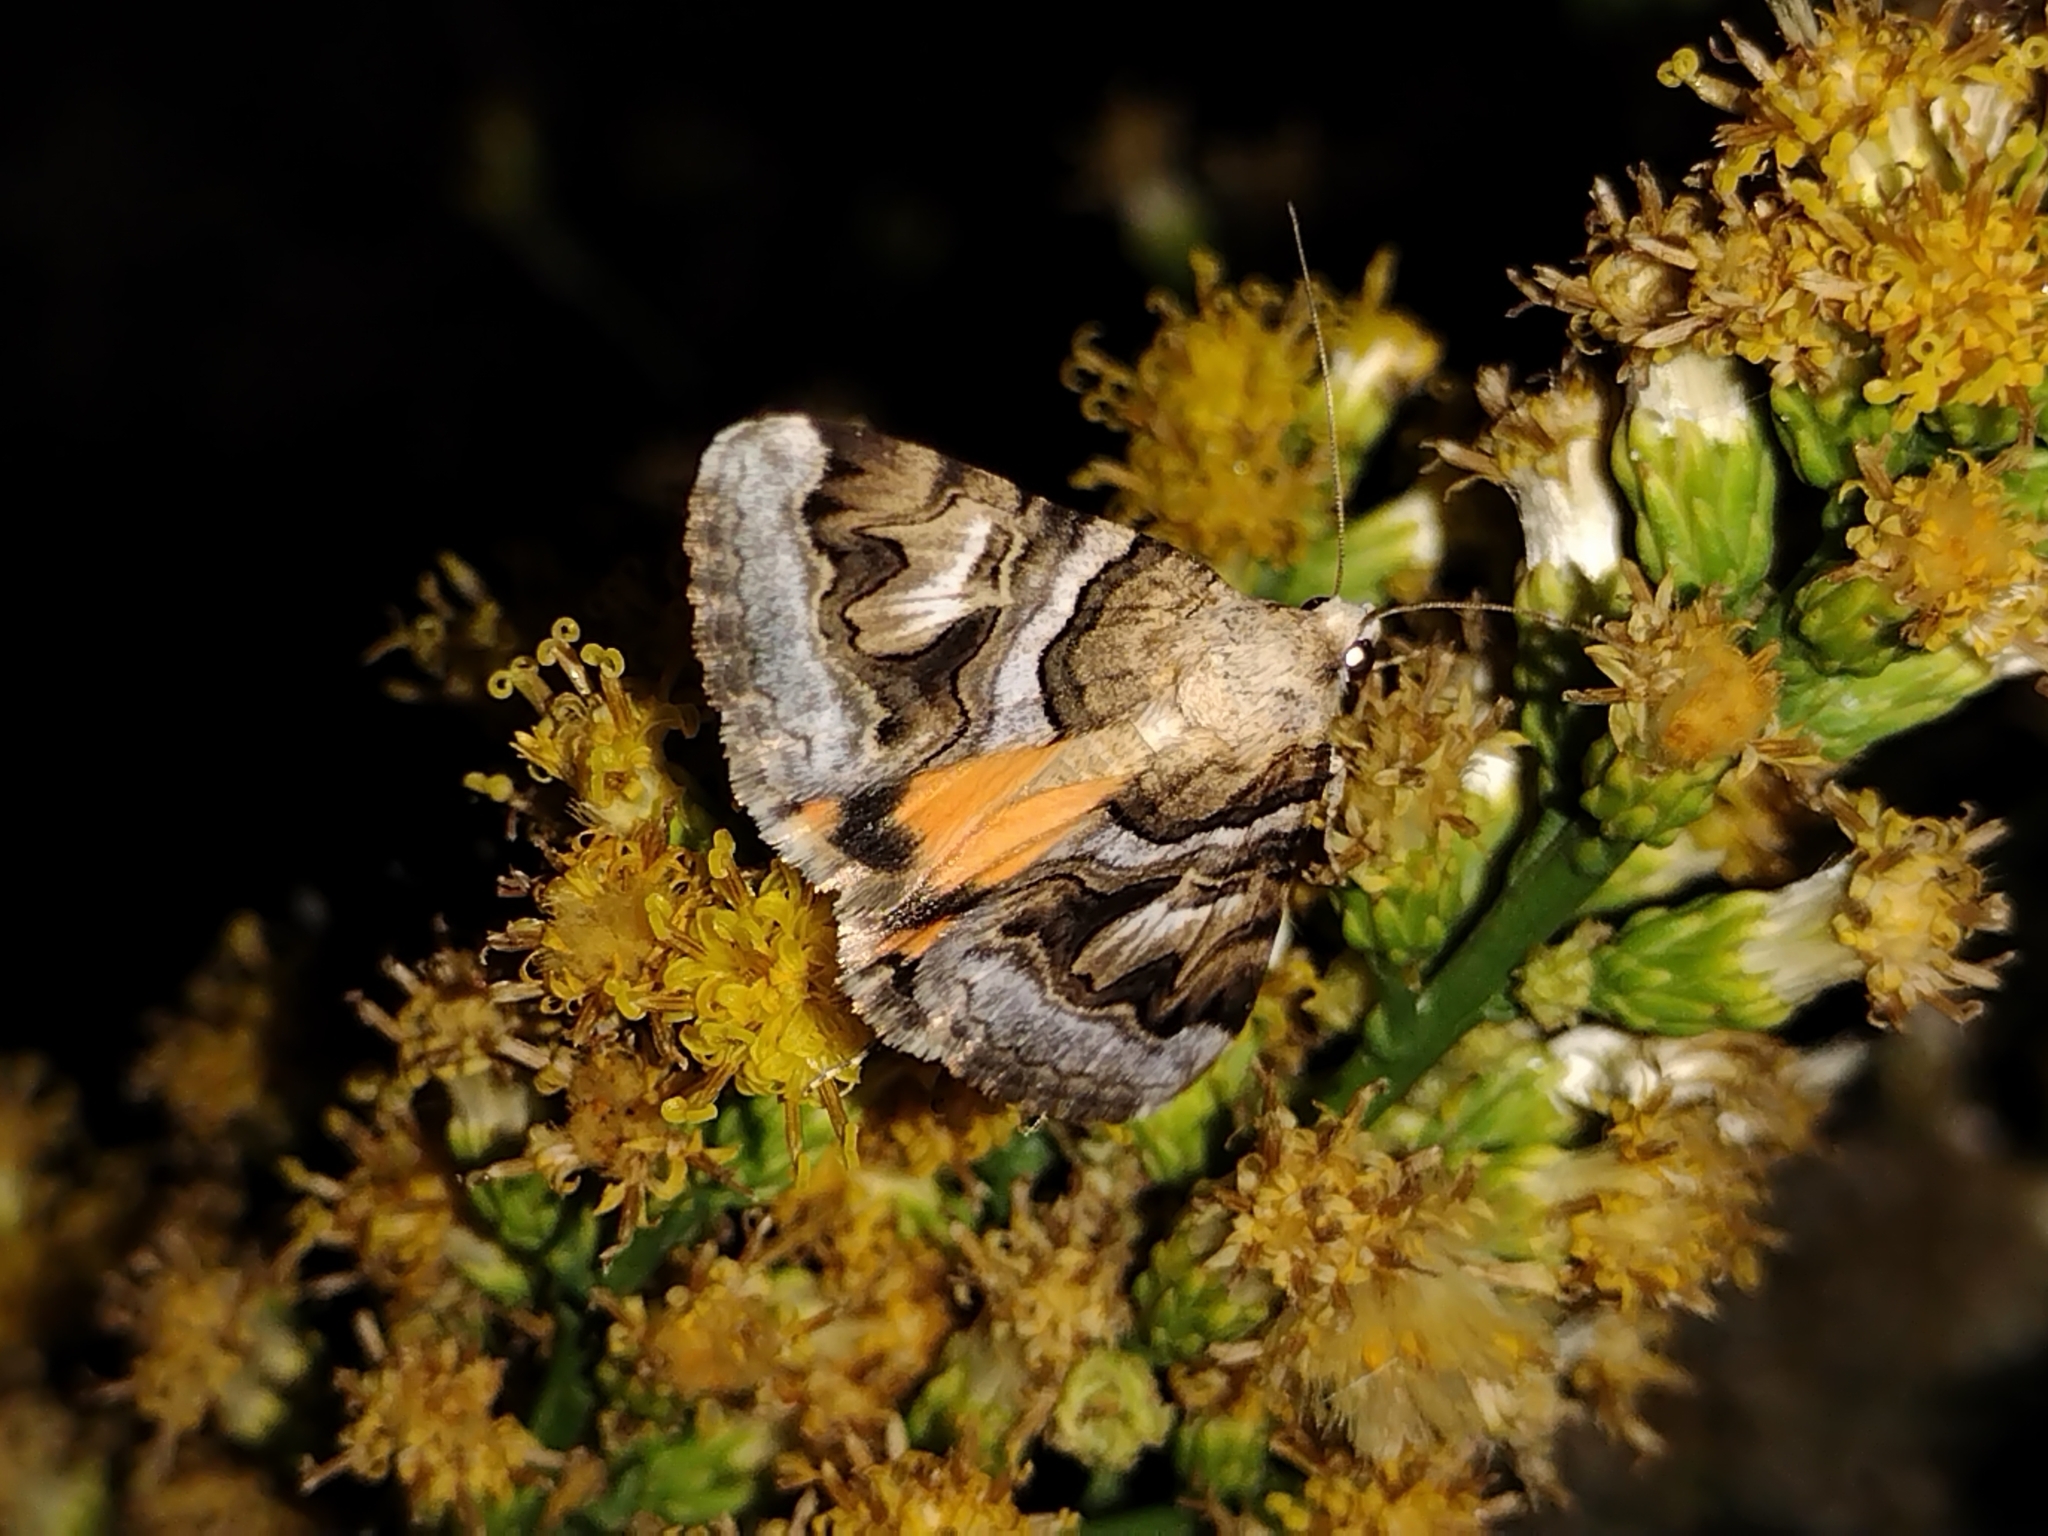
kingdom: Animalia
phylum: Arthropoda
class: Insecta
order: Lepidoptera
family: Erebidae
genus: Drasteria
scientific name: Drasteria howlandii
